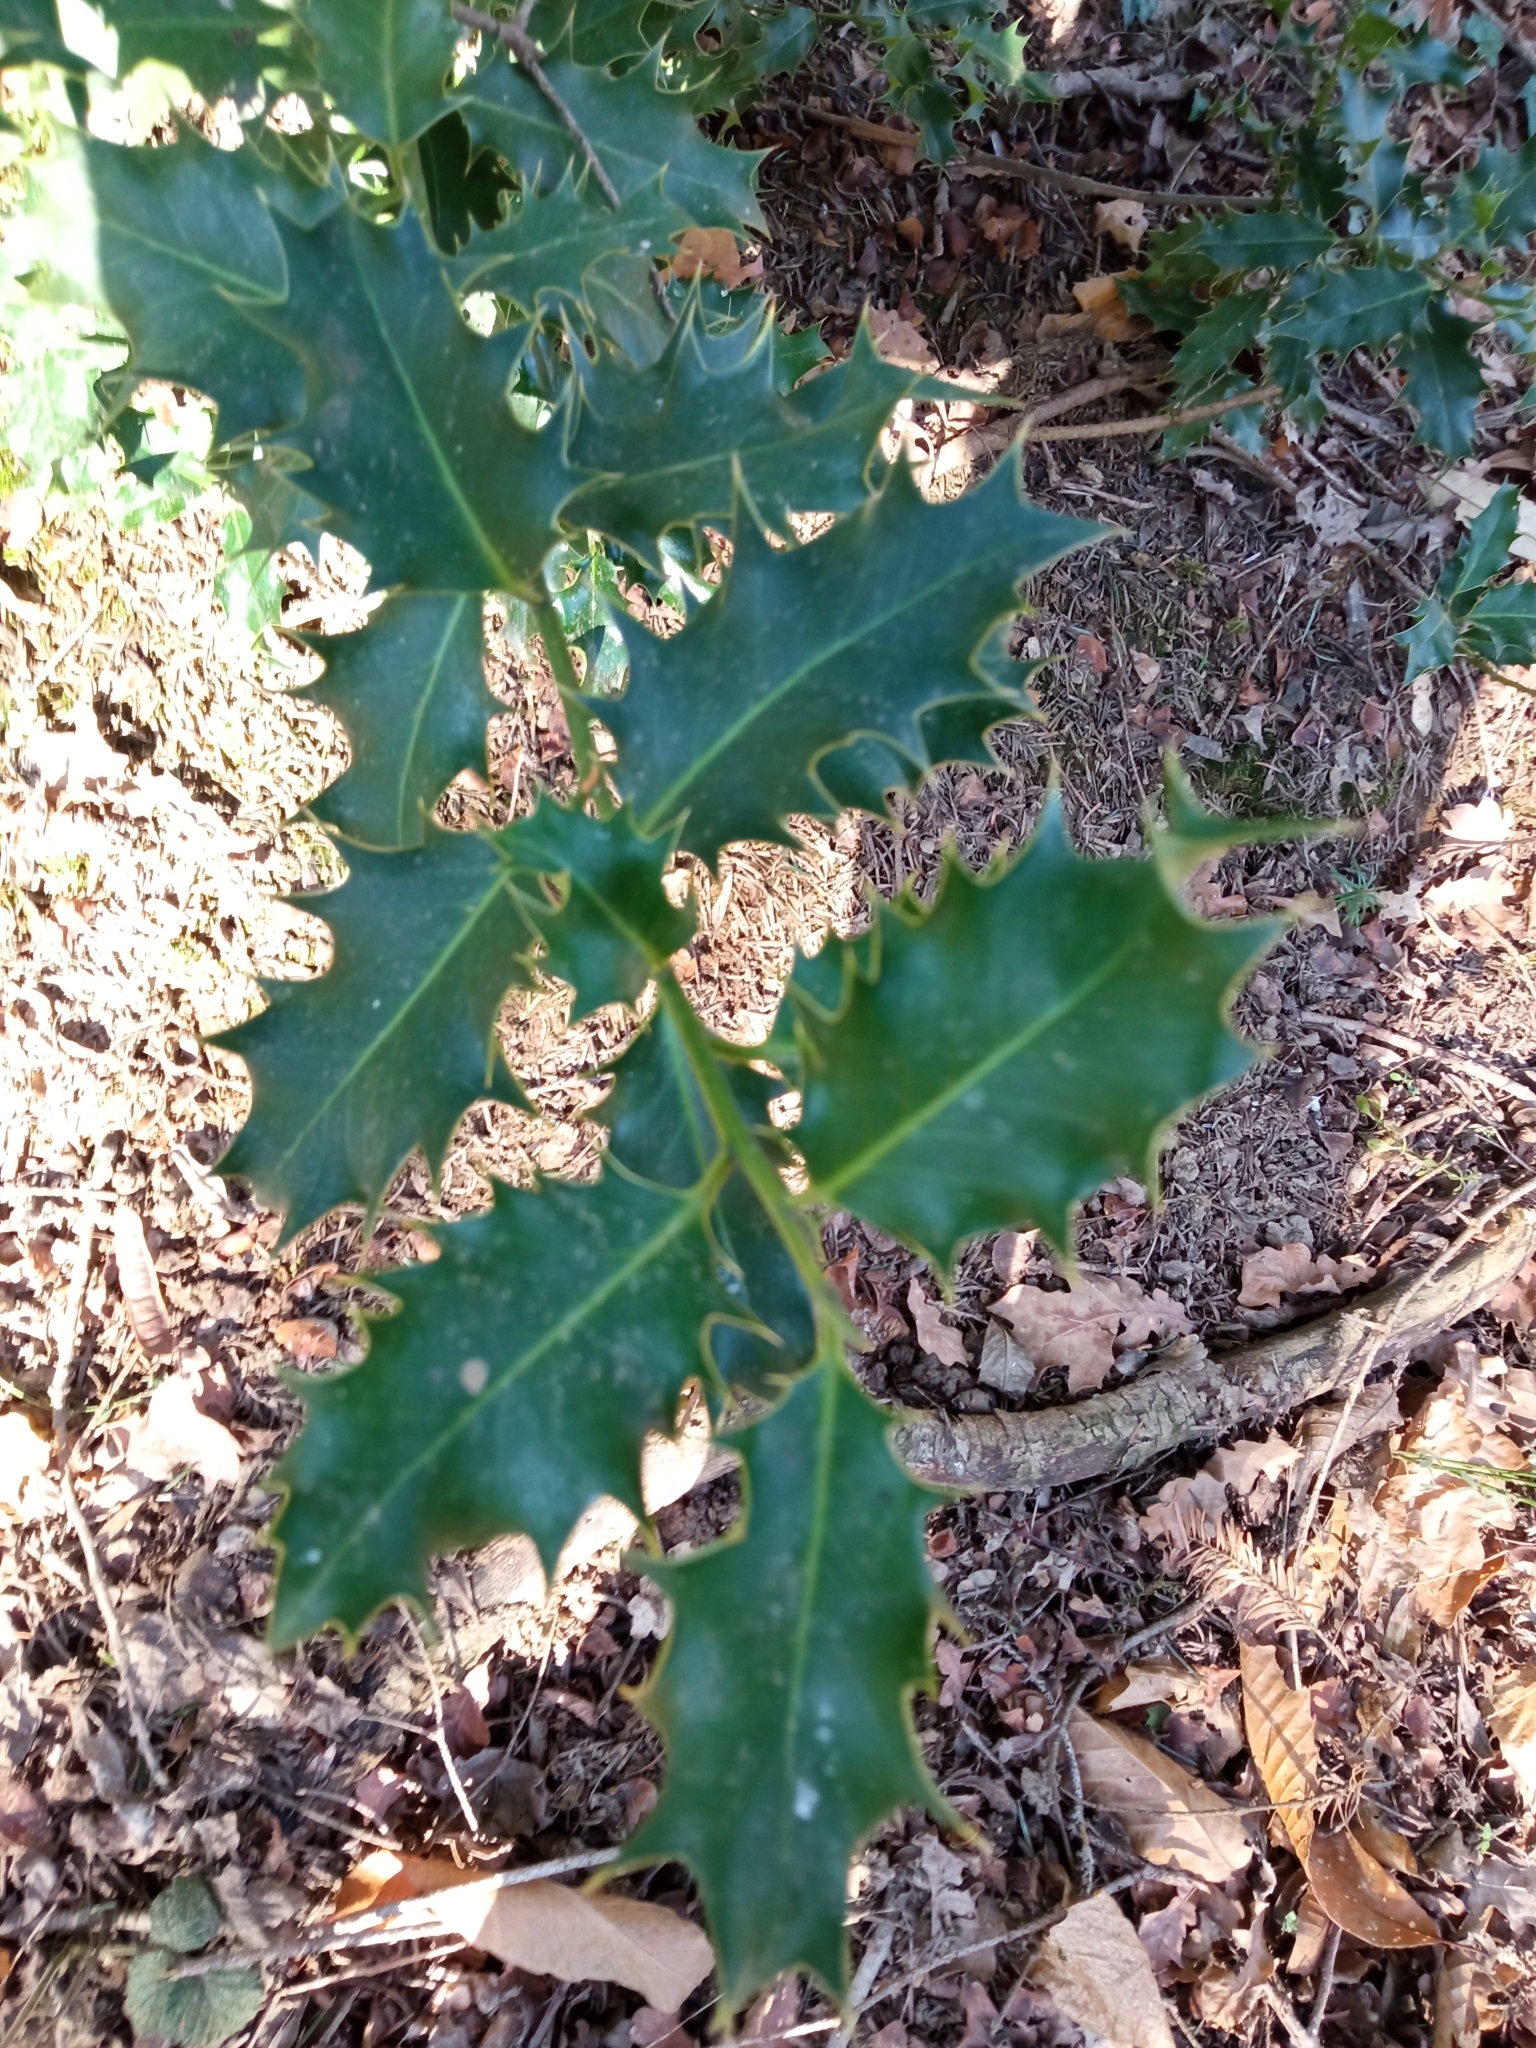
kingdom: Plantae
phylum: Tracheophyta
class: Magnoliopsida
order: Aquifoliales
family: Aquifoliaceae
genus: Ilex
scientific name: Ilex aquifolium
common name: English holly
